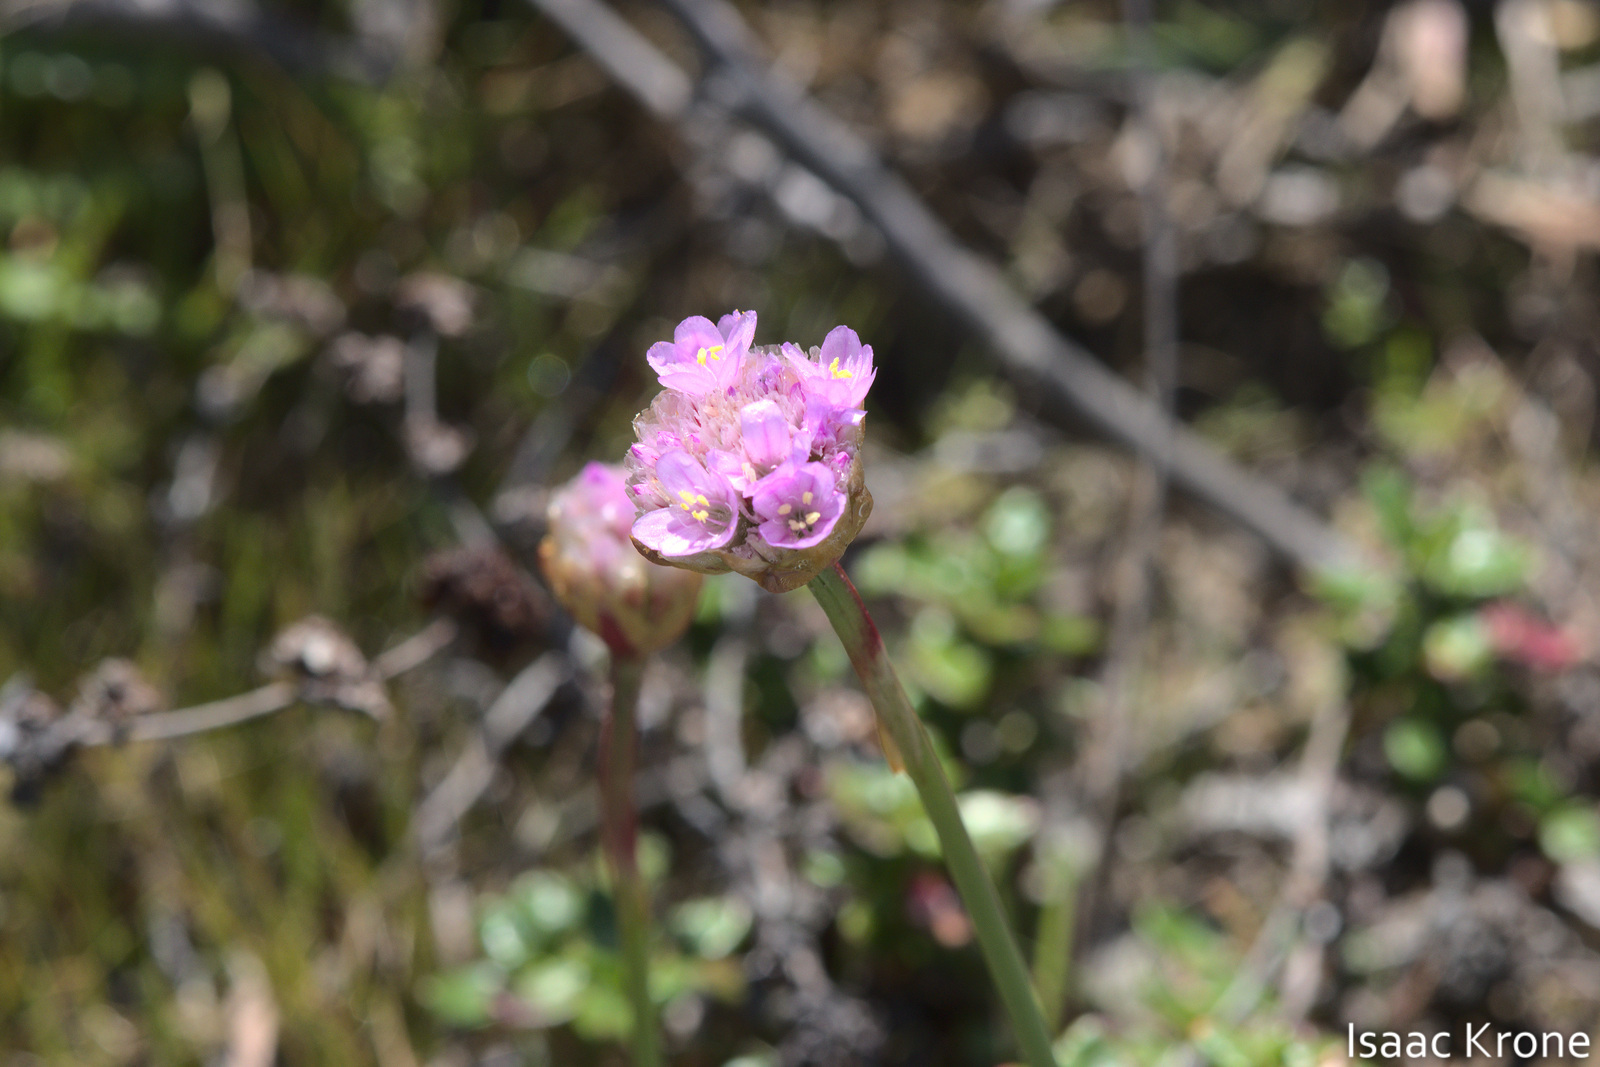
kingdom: Plantae
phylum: Tracheophyta
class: Magnoliopsida
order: Caryophyllales
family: Plumbaginaceae
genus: Armeria
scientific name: Armeria maritima
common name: Thrift
